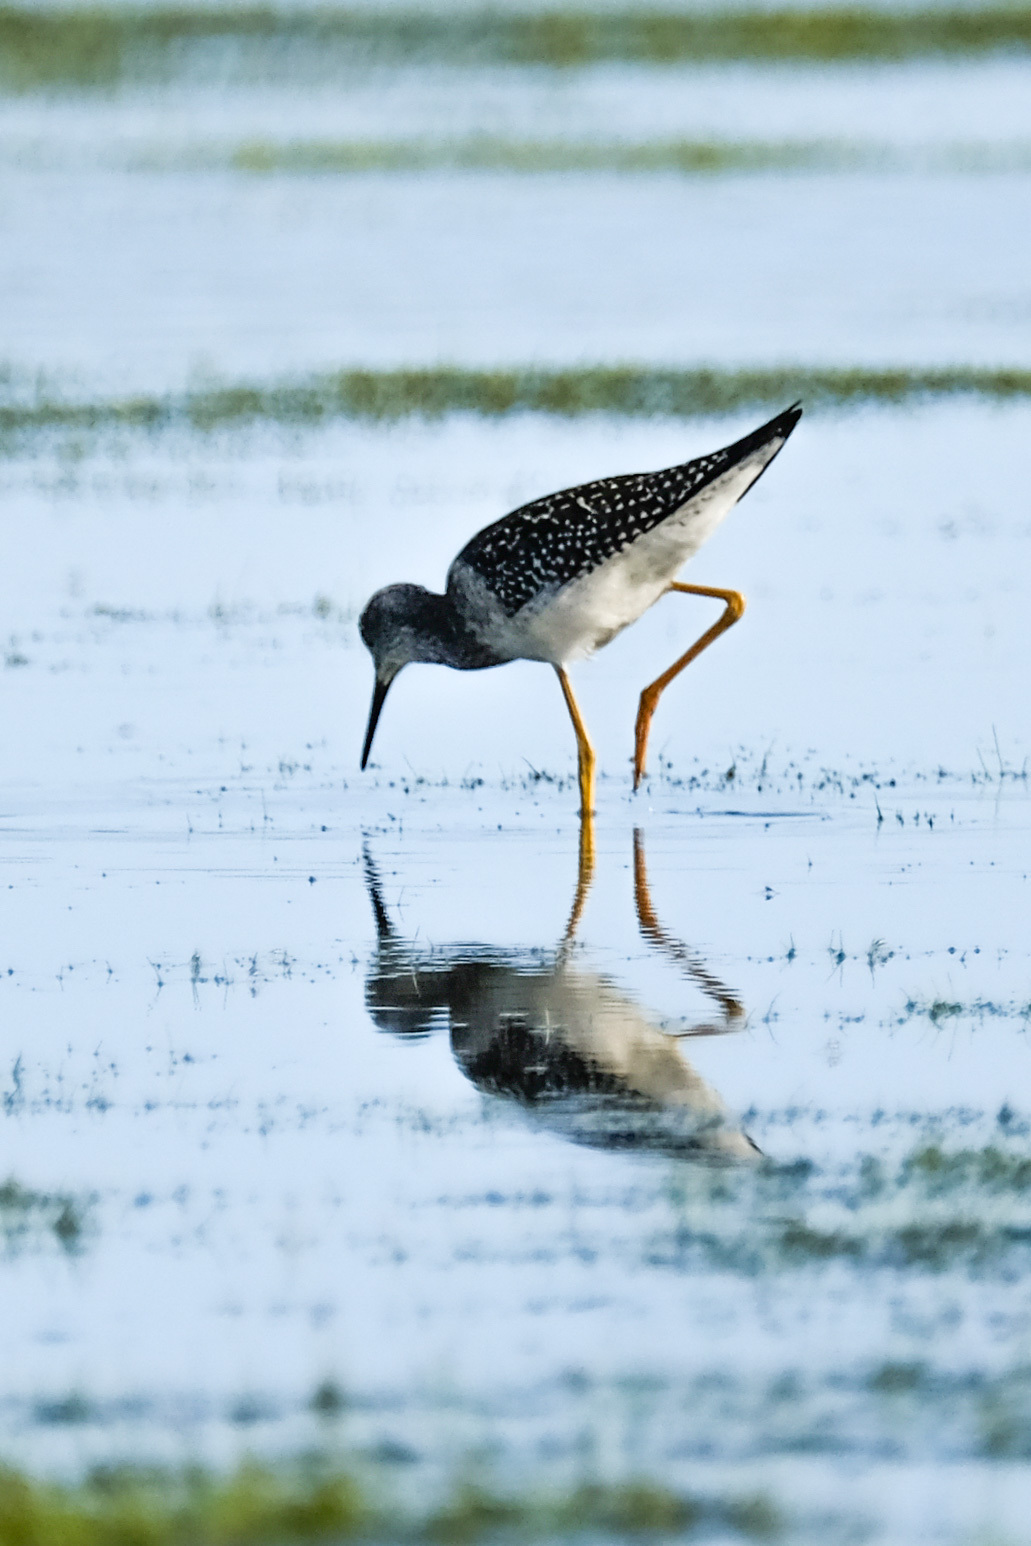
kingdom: Animalia
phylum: Chordata
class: Aves
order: Charadriiformes
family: Scolopacidae
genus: Tringa
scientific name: Tringa flavipes
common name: Lesser yellowlegs
